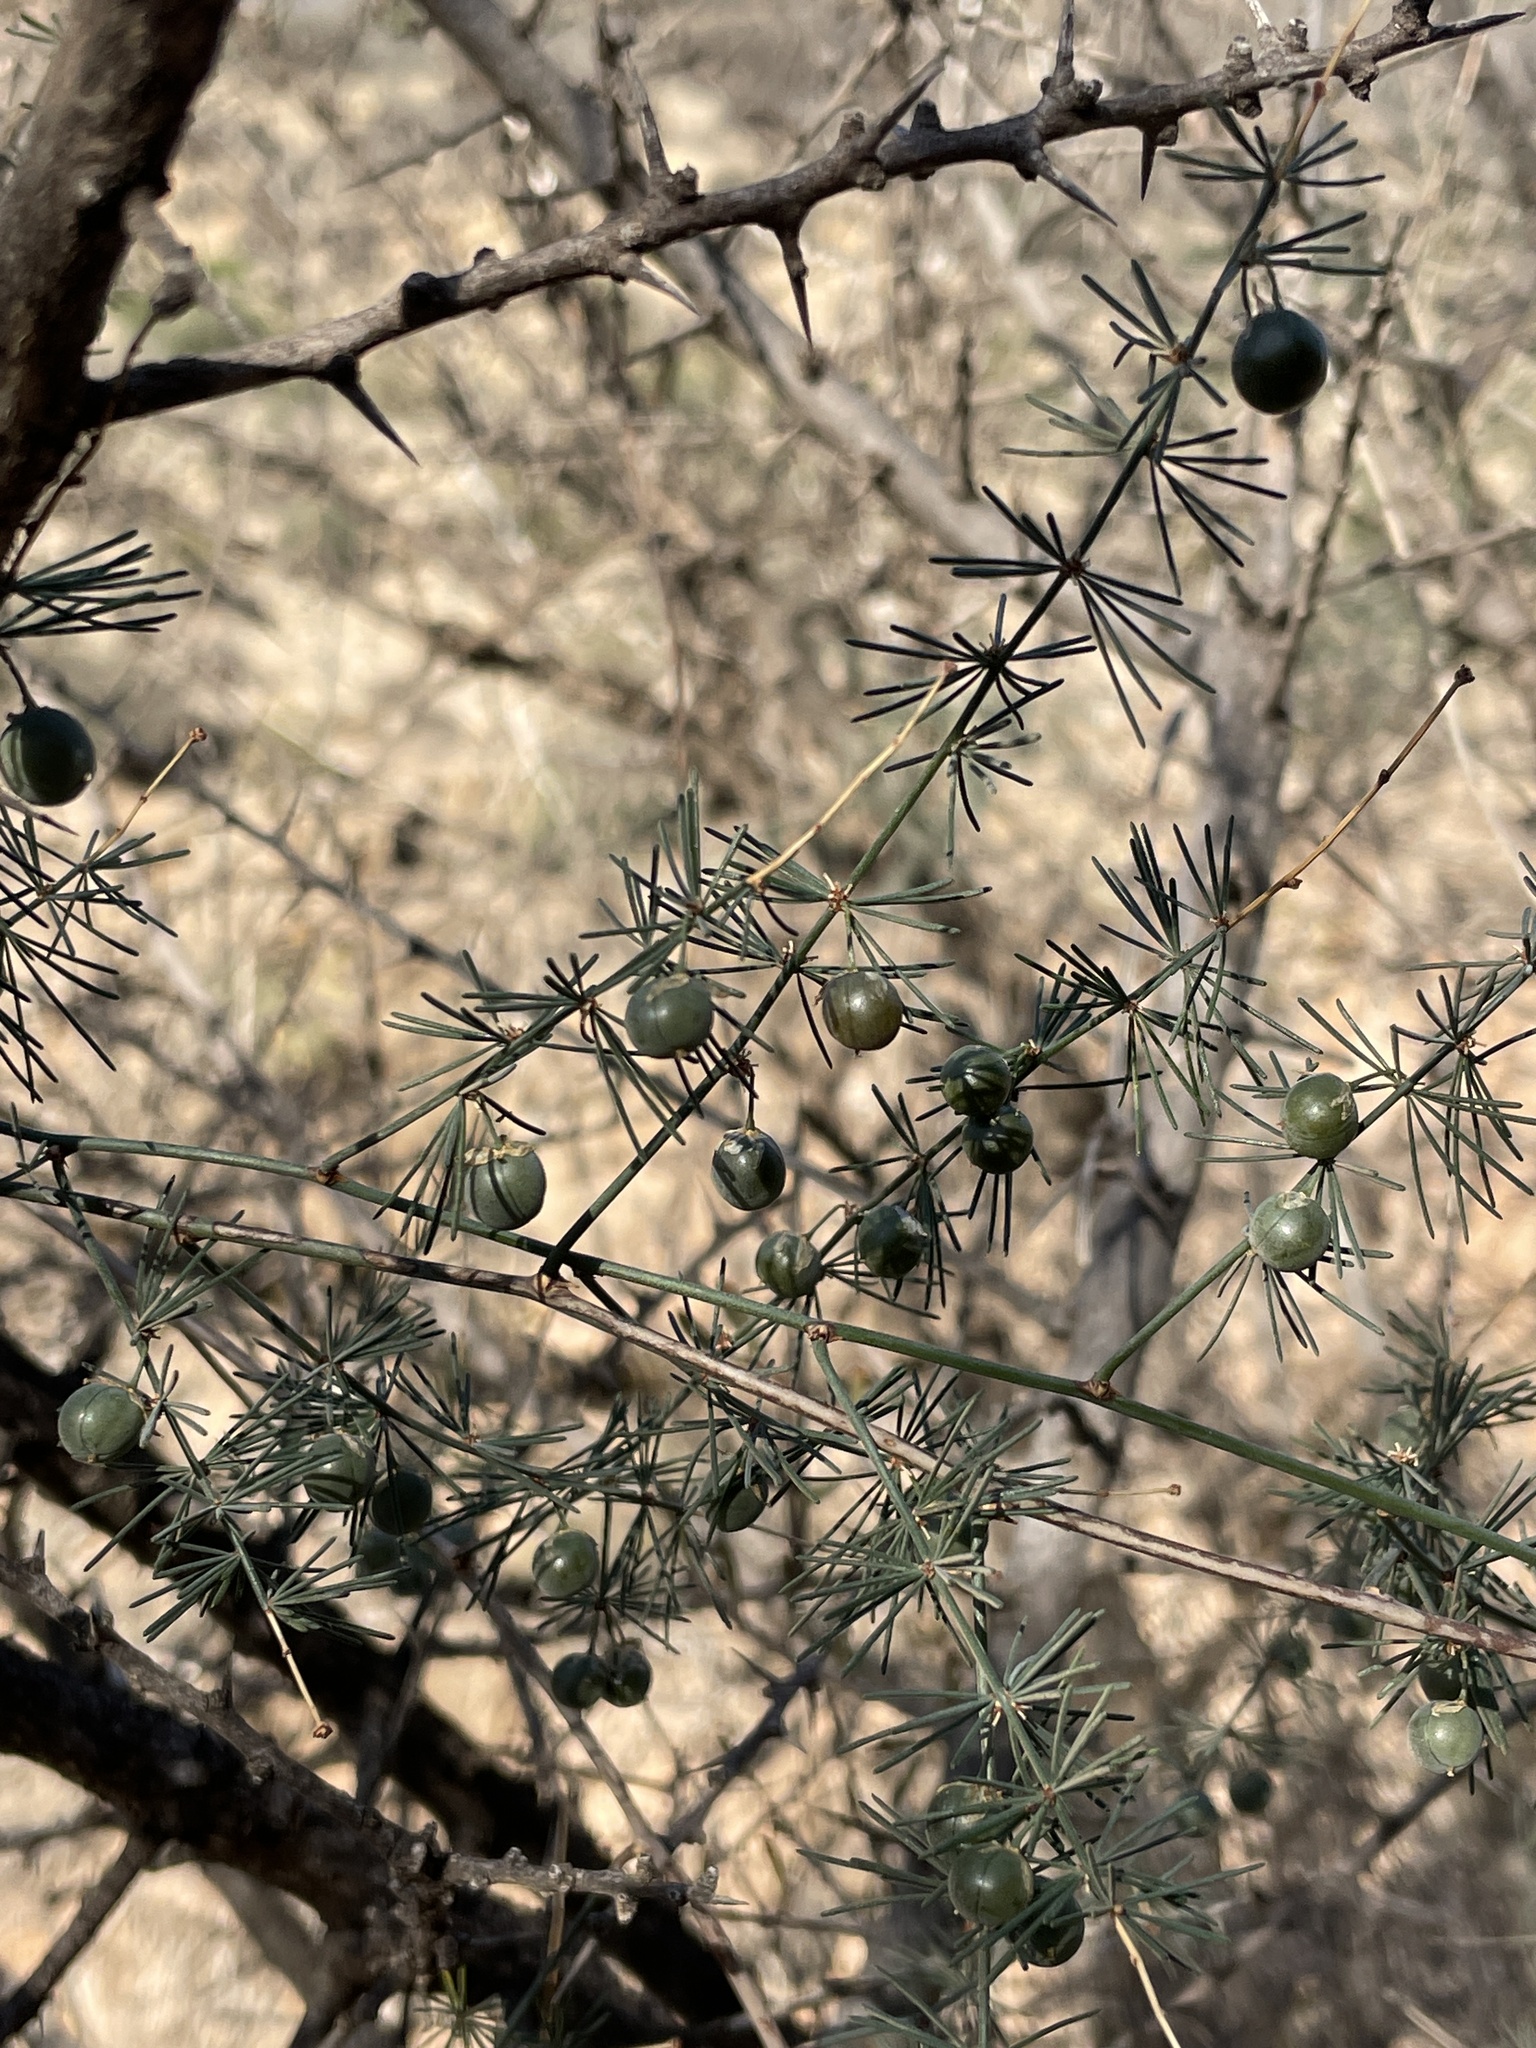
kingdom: Plantae
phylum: Tracheophyta
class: Liliopsida
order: Asparagales
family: Asparagaceae
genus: Asparagus
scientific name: Asparagus altissimus
